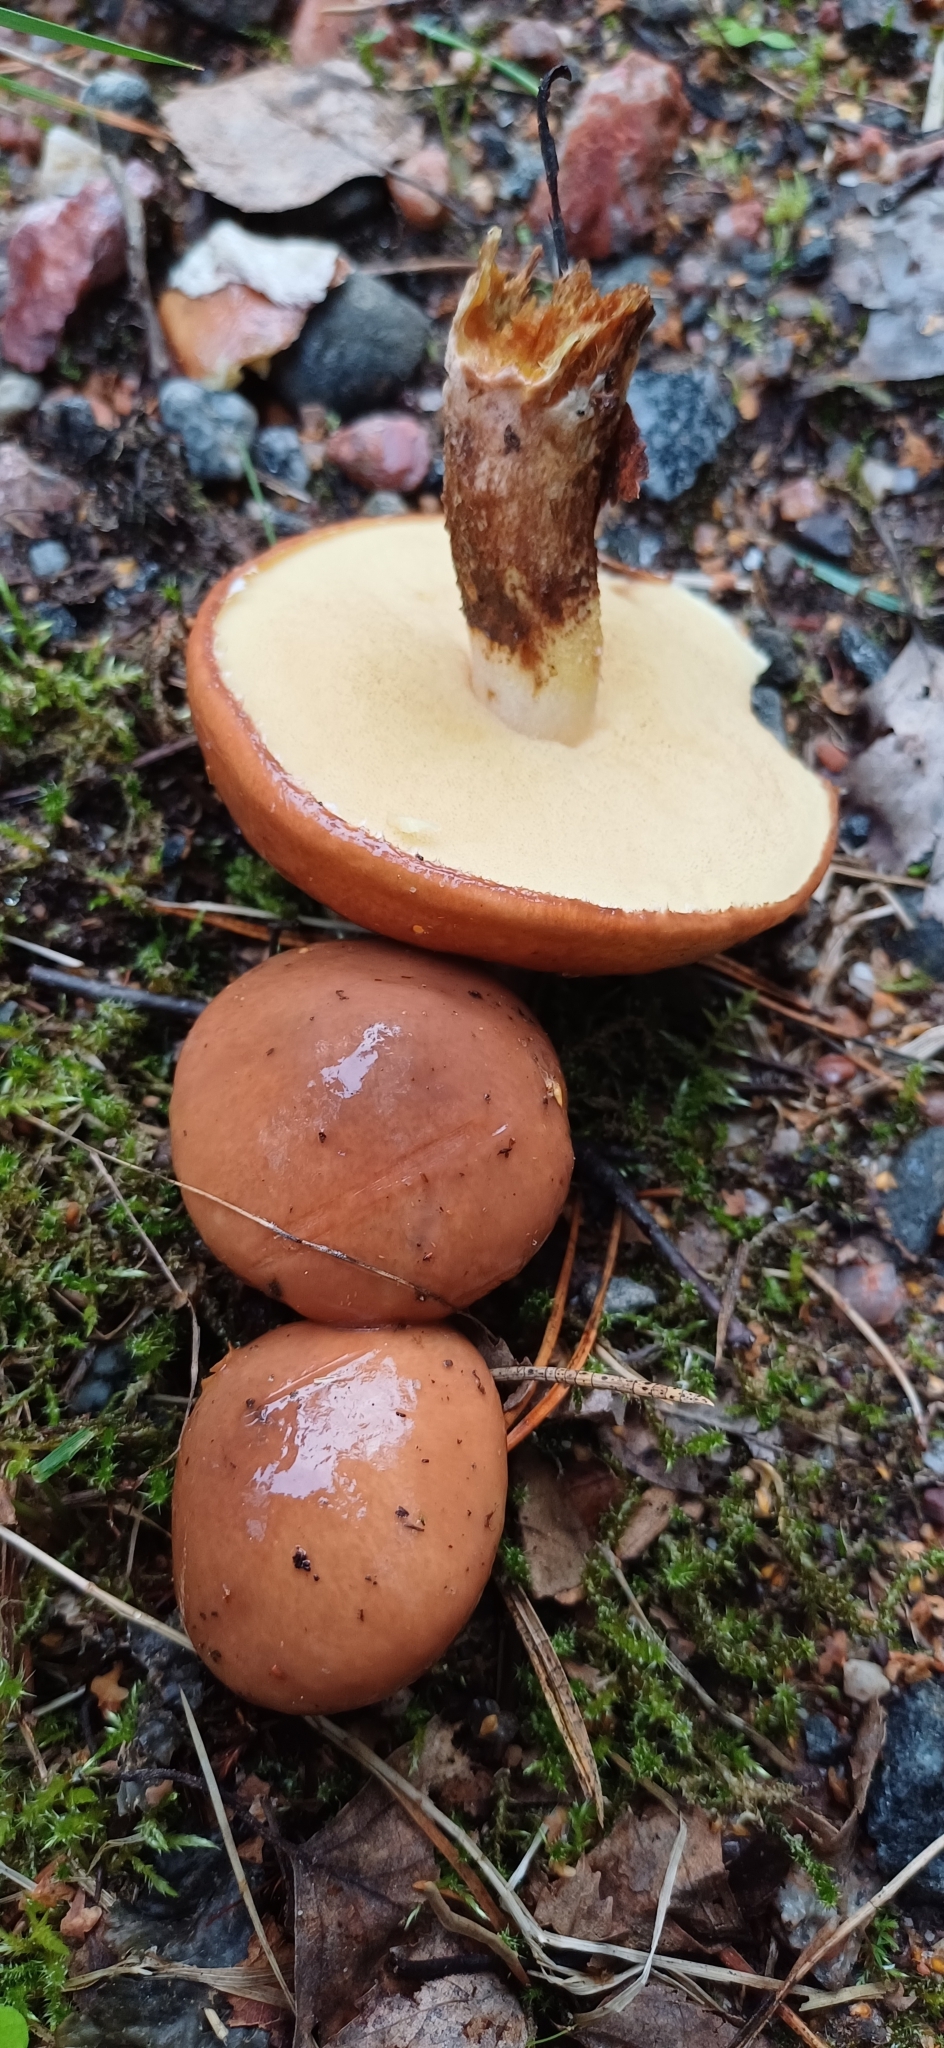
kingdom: Fungi
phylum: Basidiomycota
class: Agaricomycetes
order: Boletales
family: Suillaceae
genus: Suillus
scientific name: Suillus luteus
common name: Slippery jack
